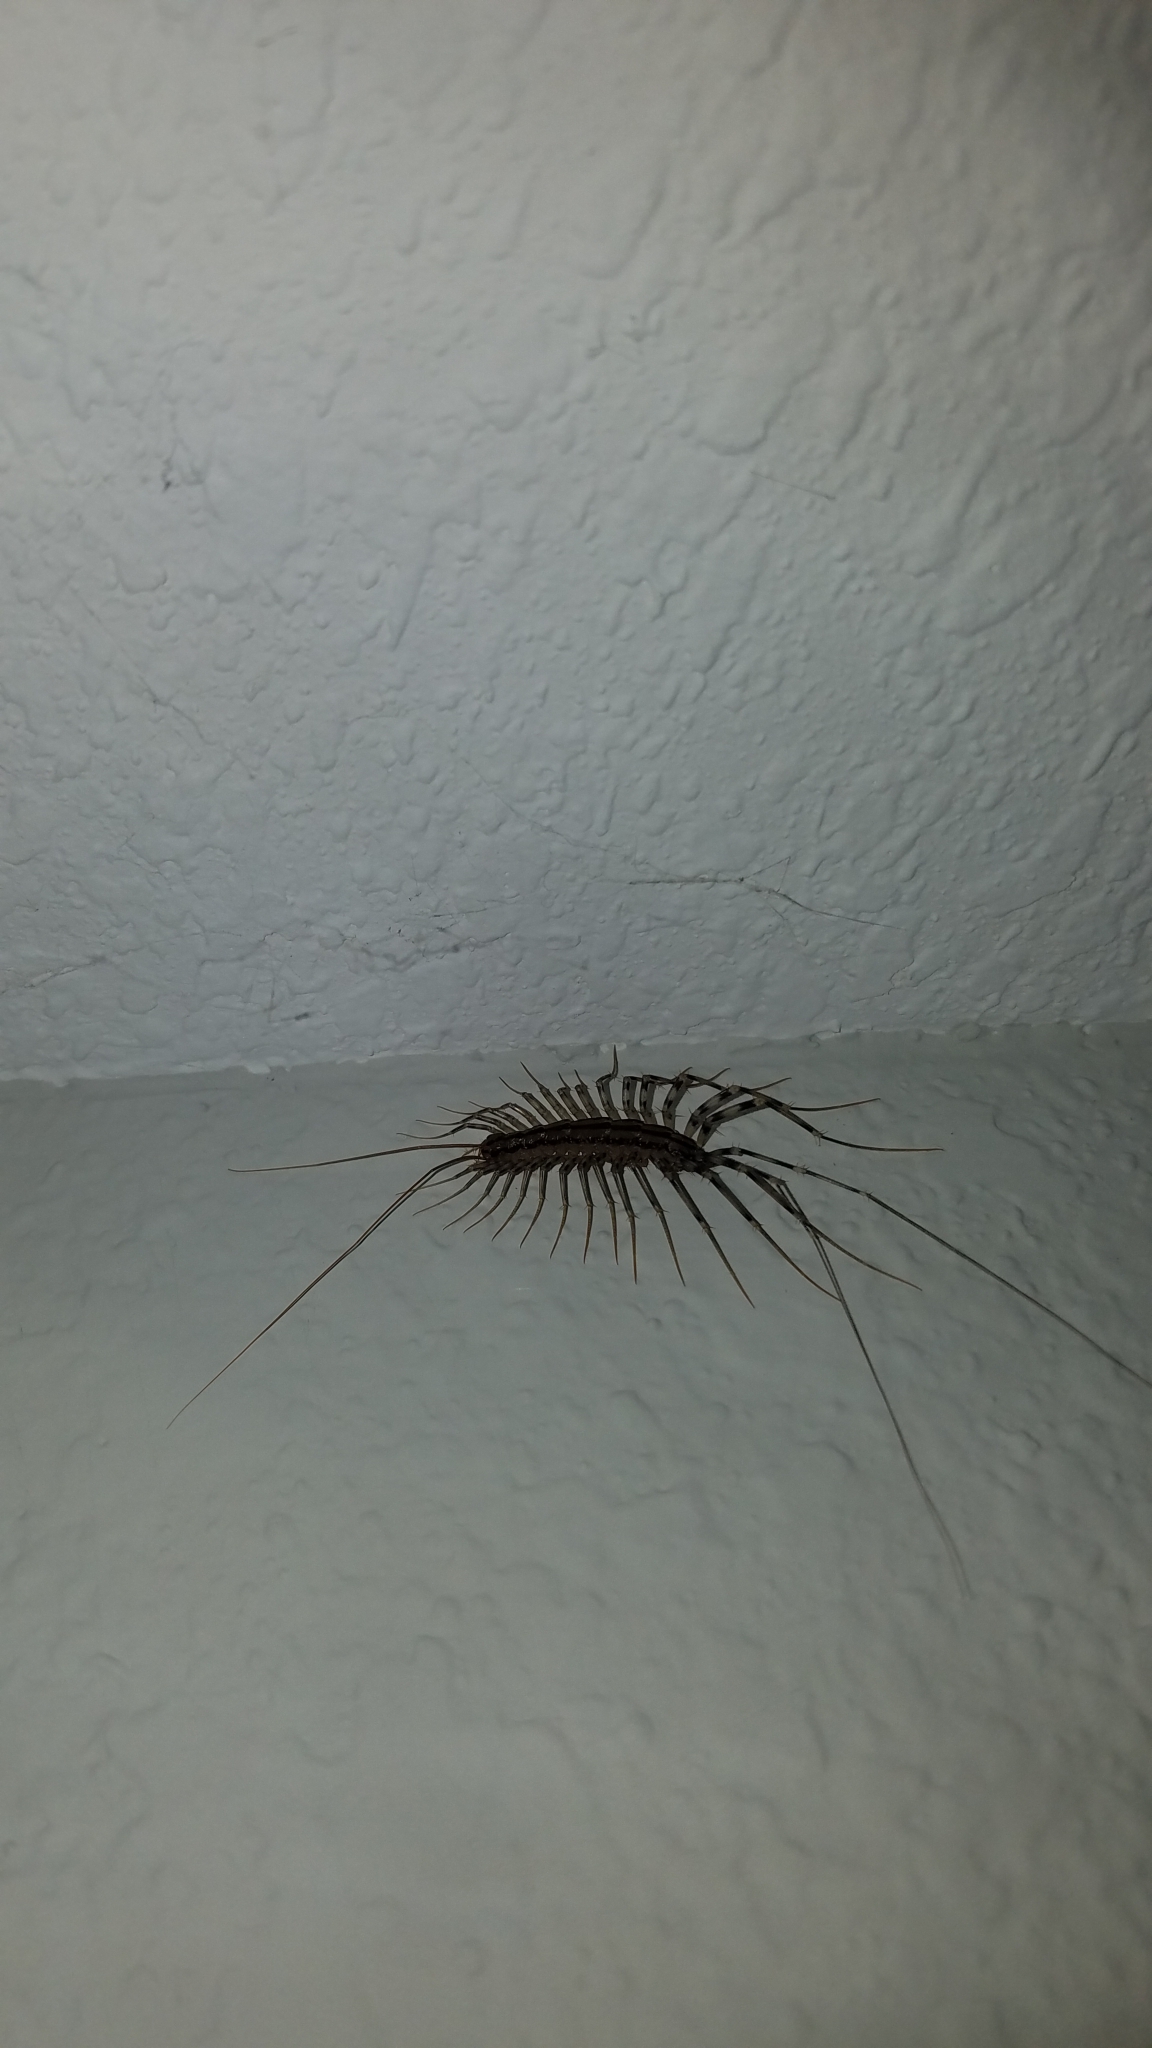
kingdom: Animalia
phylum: Arthropoda
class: Chilopoda
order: Scutigeromorpha
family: Scutigeridae
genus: Scutigera
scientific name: Scutigera coleoptrata
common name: House centipede
